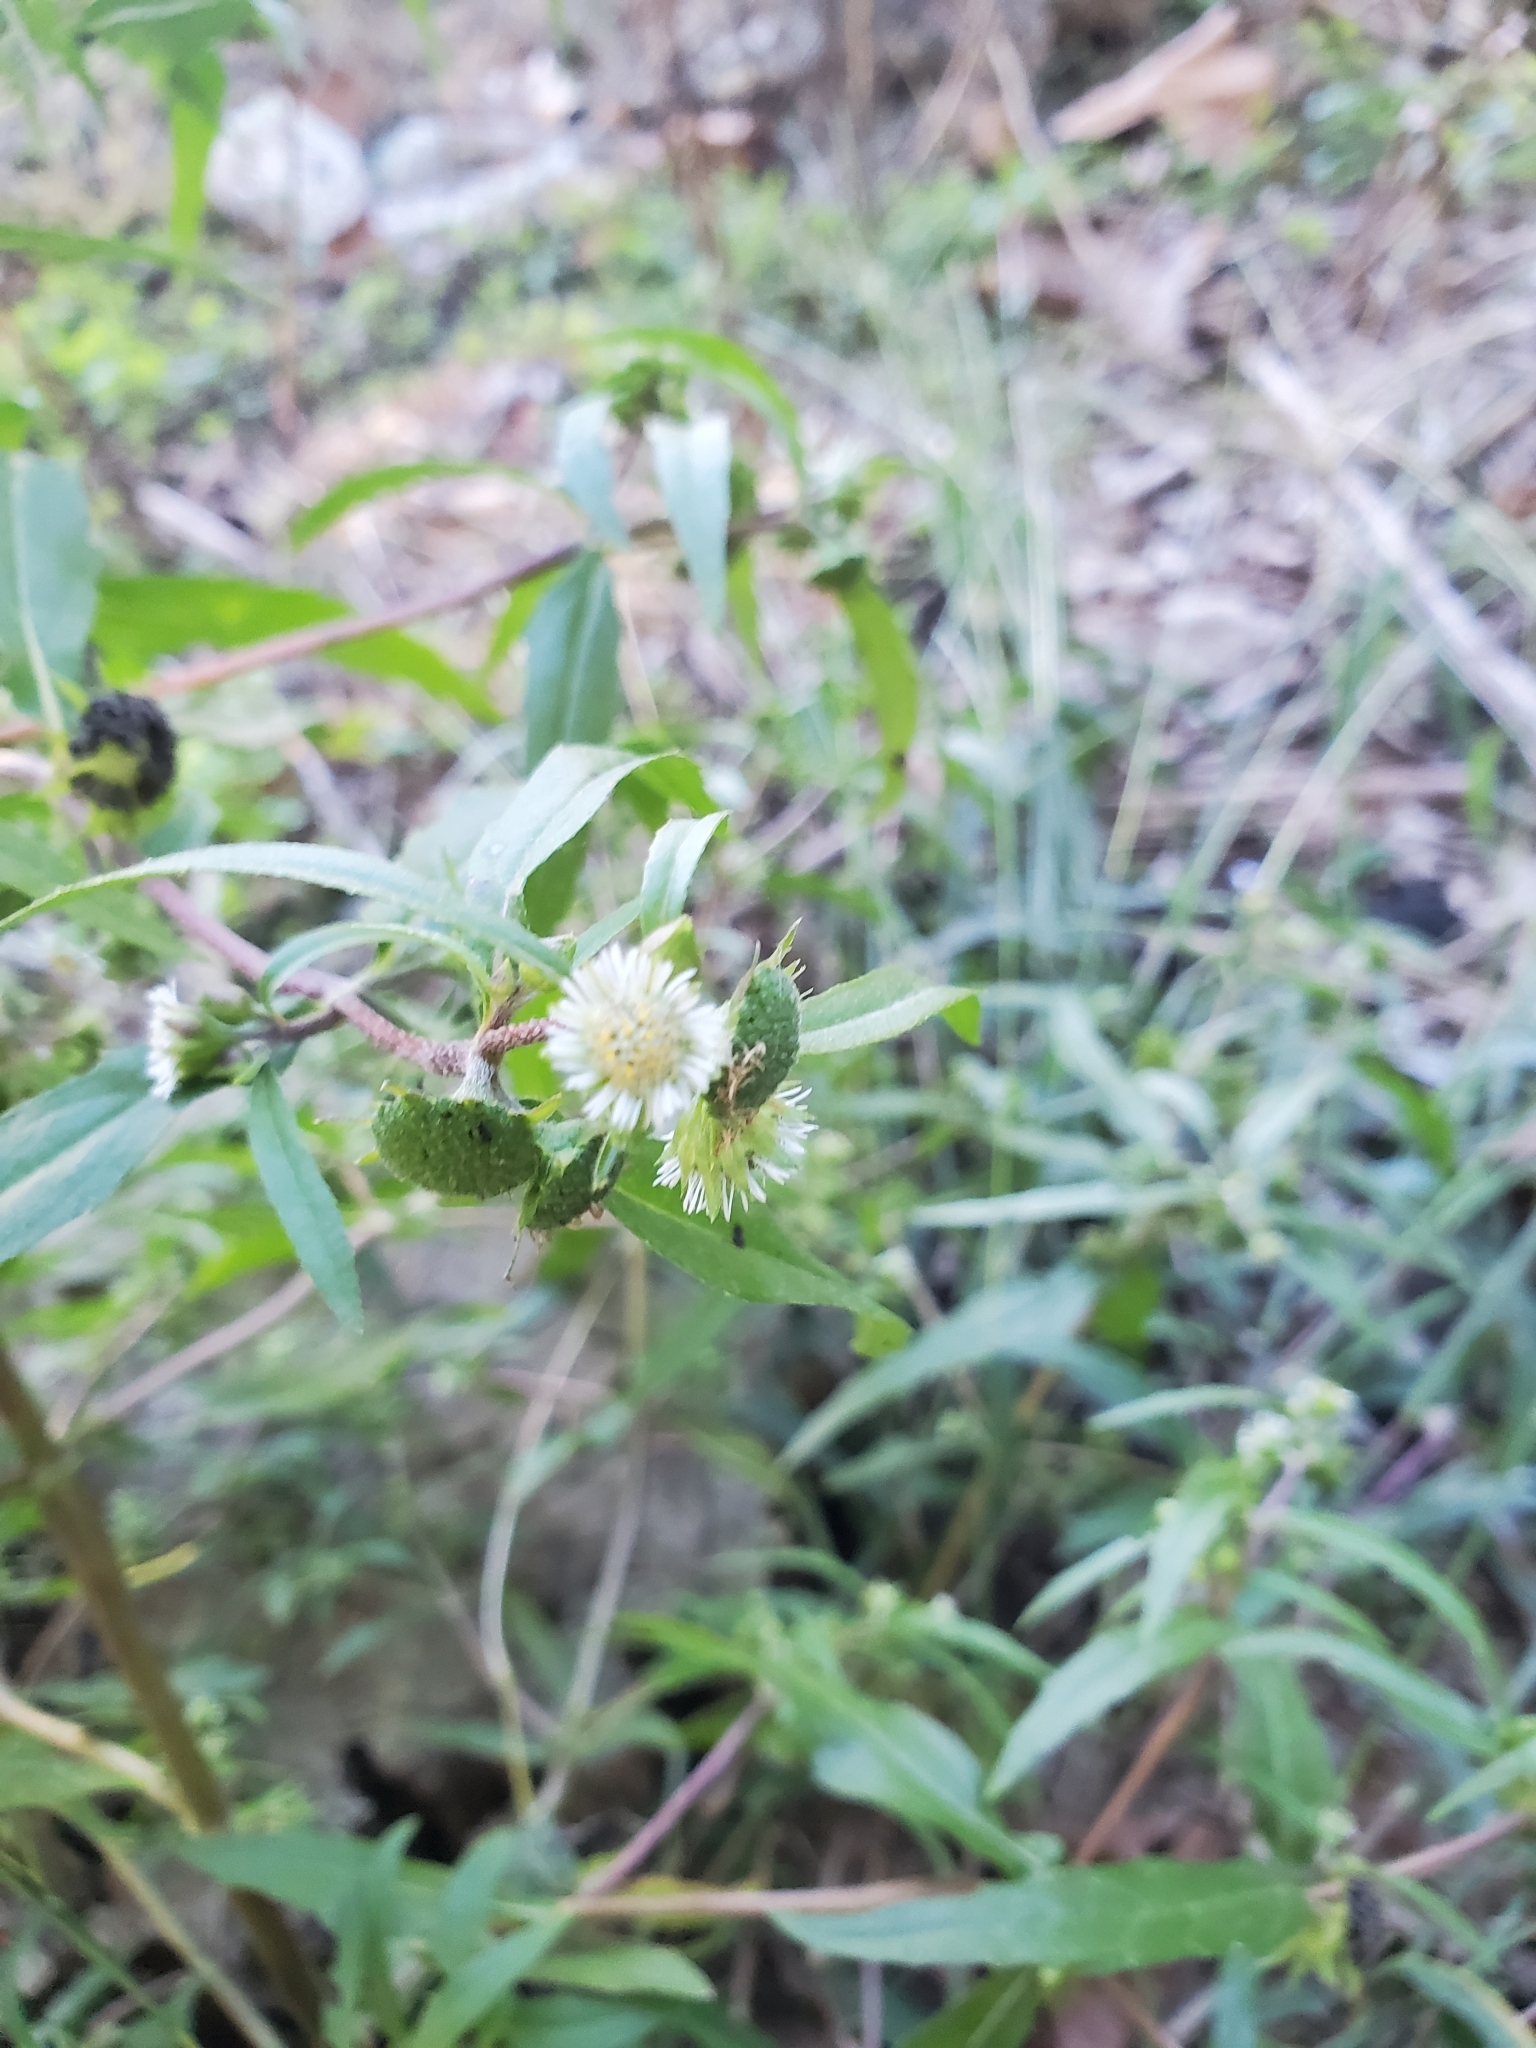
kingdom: Plantae
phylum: Tracheophyta
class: Magnoliopsida
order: Asterales
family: Asteraceae
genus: Eclipta
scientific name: Eclipta prostrata
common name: False daisy
